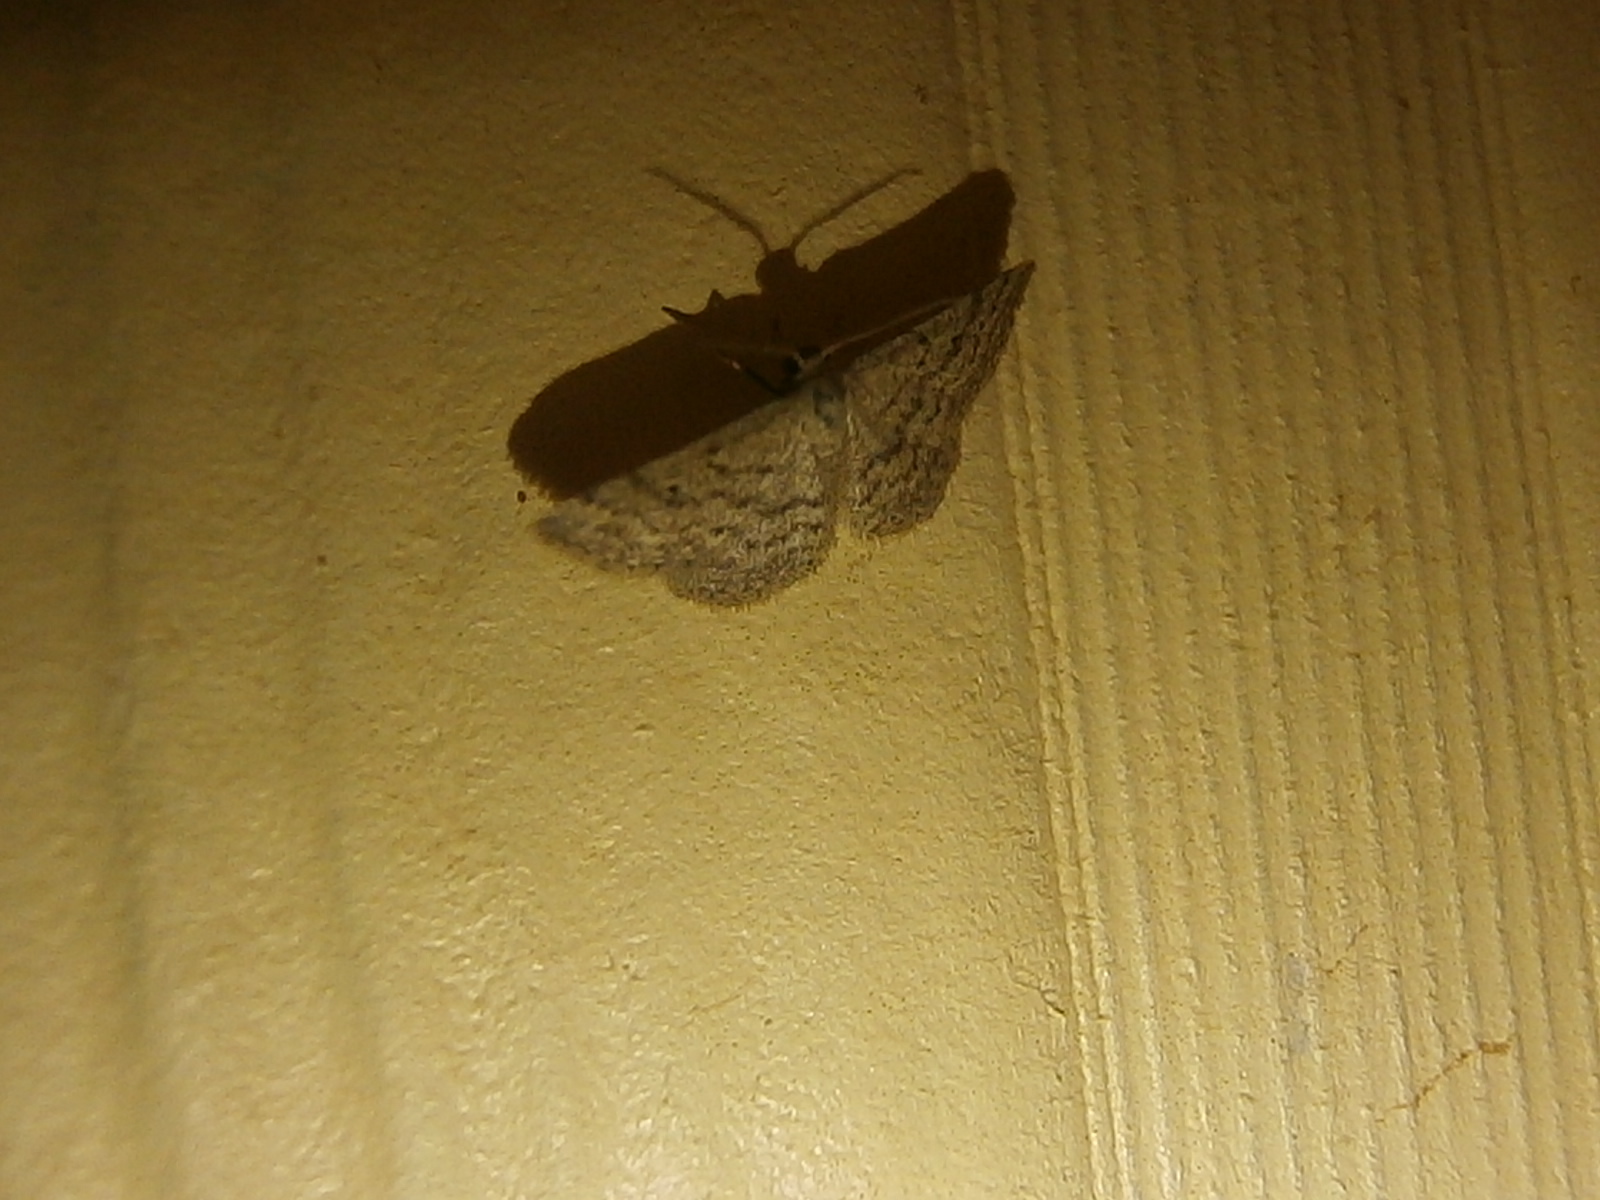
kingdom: Animalia
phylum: Arthropoda
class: Insecta
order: Lepidoptera
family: Geometridae
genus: Lobocleta
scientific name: Lobocleta ossularia
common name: Drab brown wave
